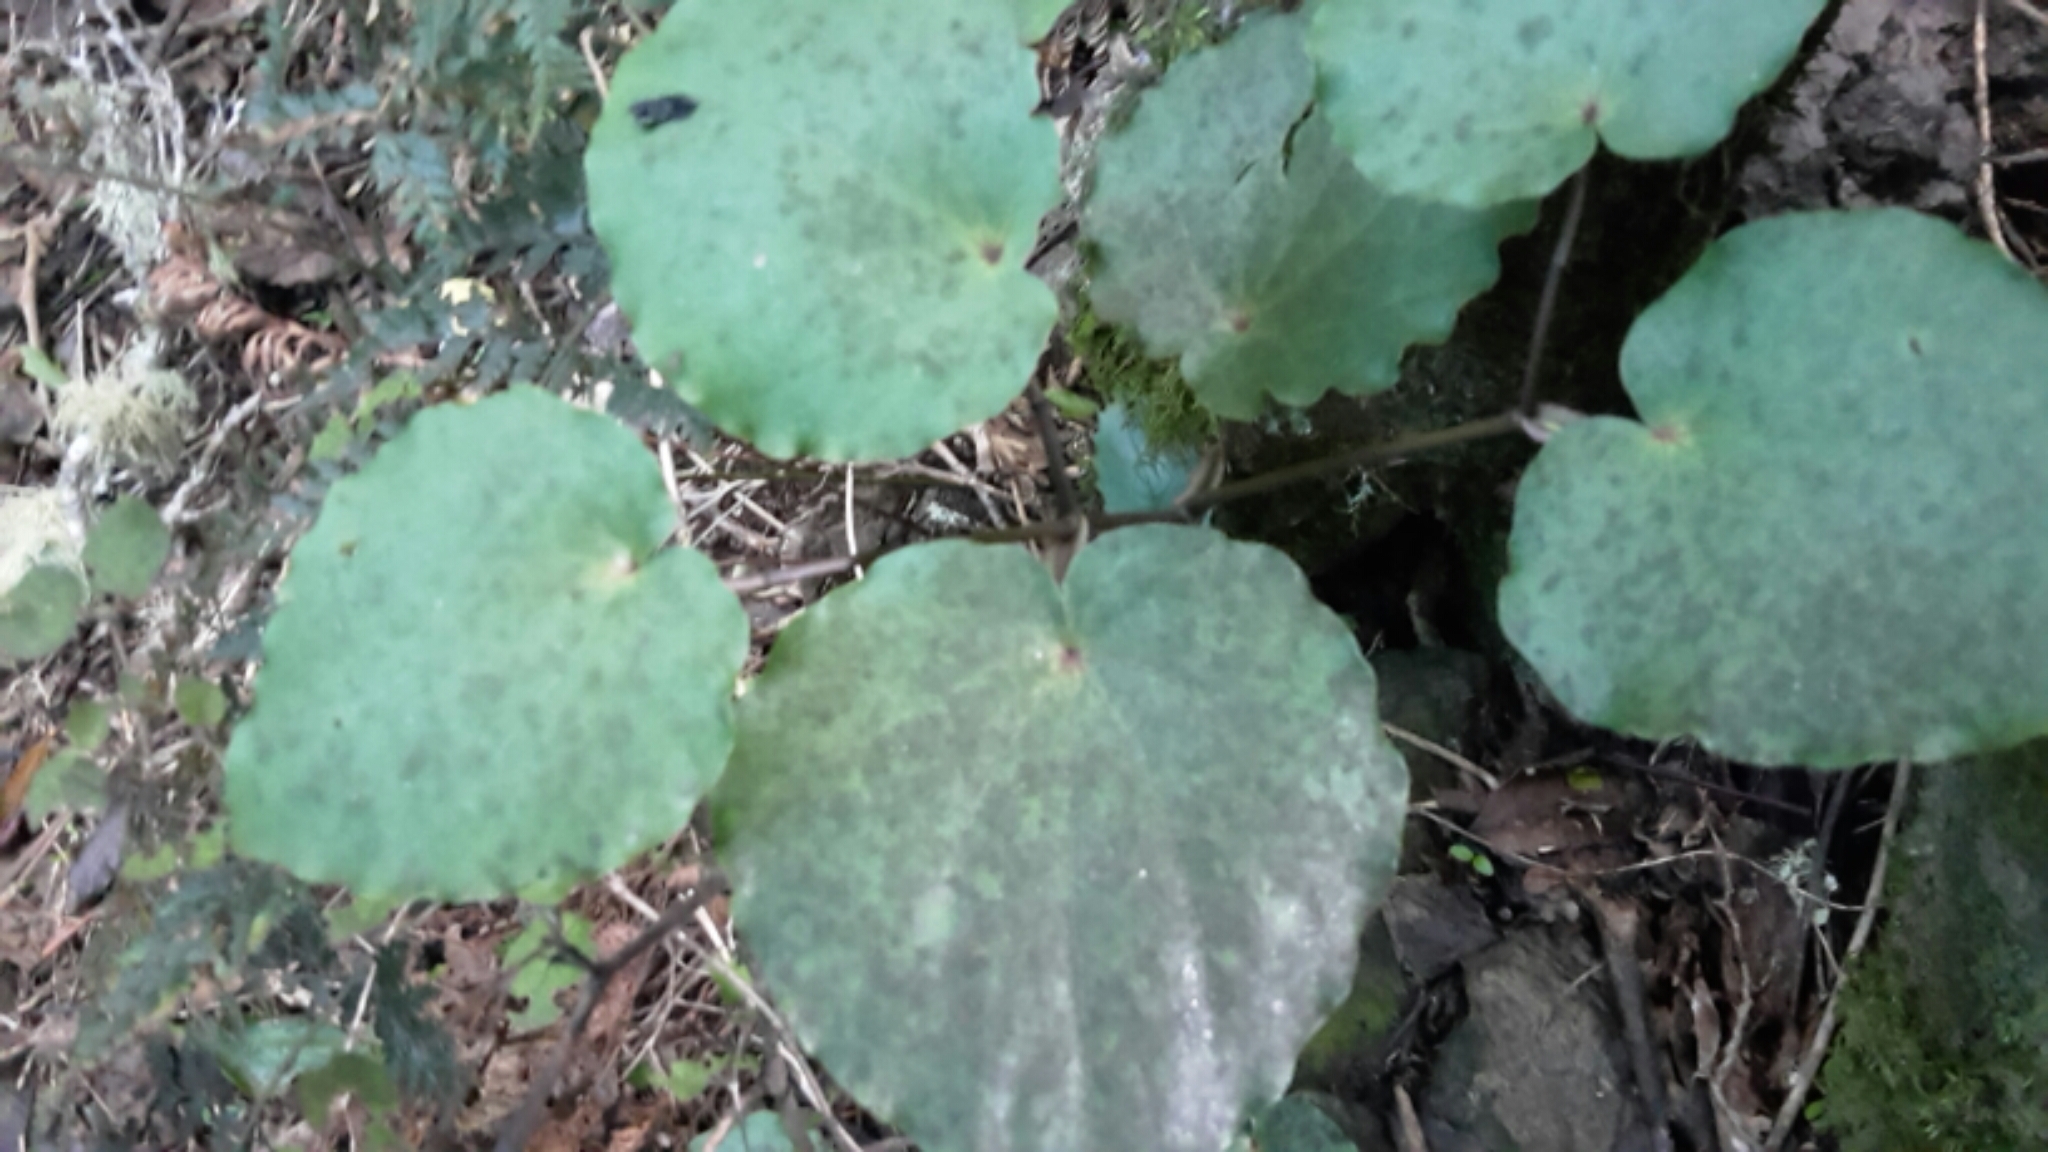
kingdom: Plantae
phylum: Tracheophyta
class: Magnoliopsida
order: Piperales
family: Piperaceae
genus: Macropiper
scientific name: Macropiper excelsum
